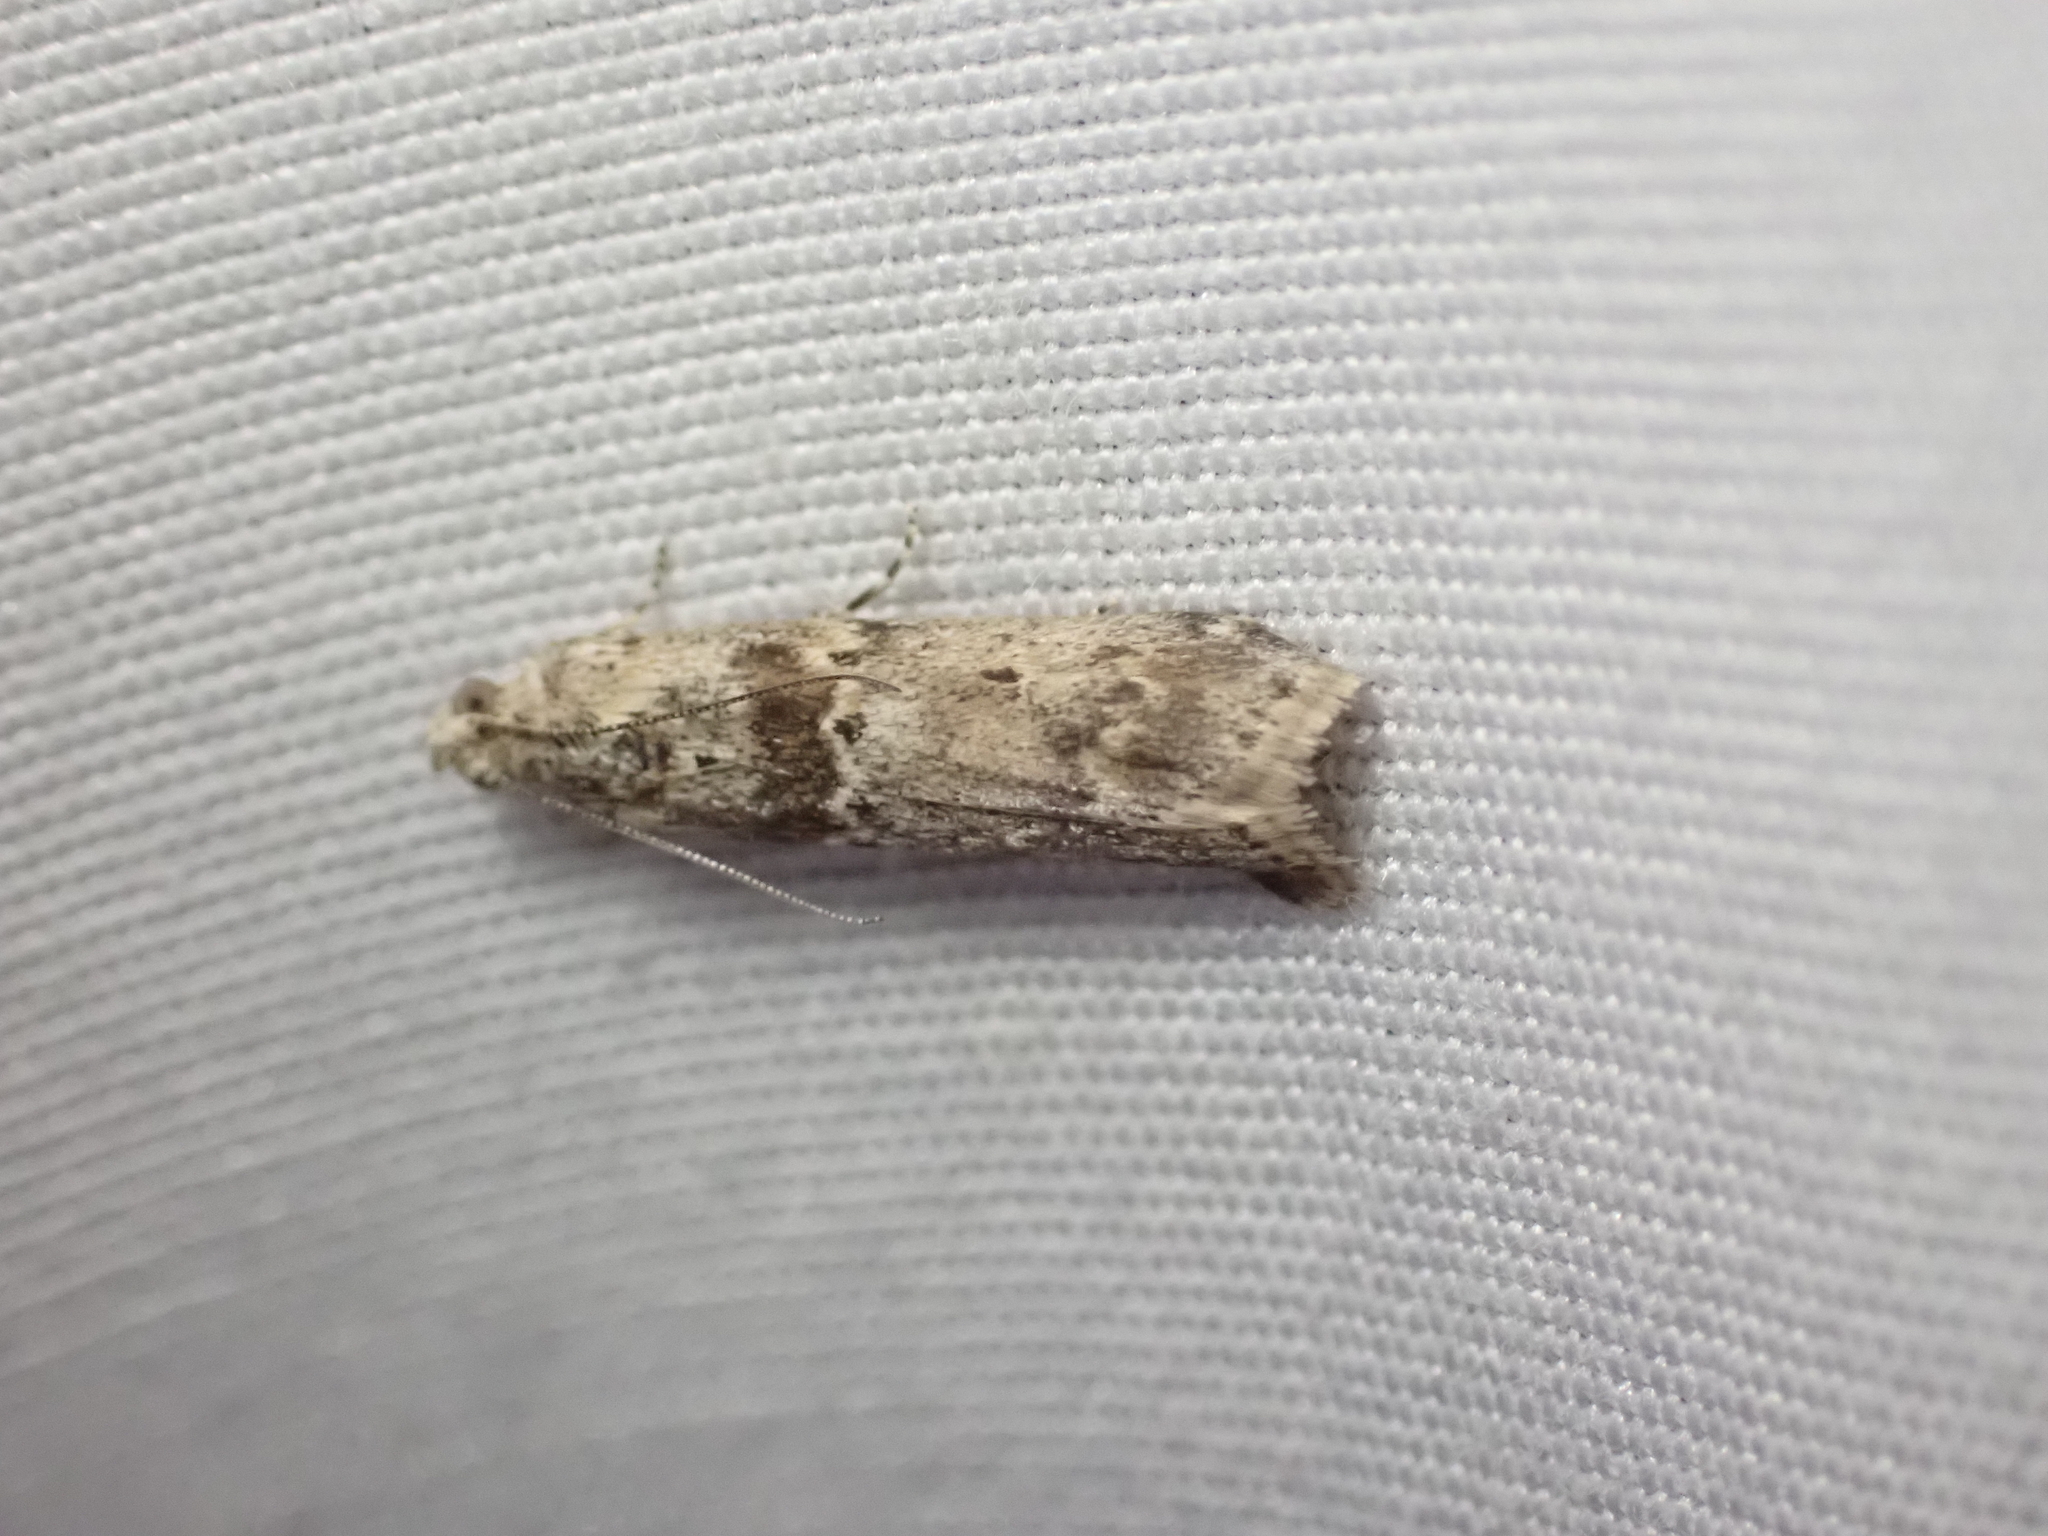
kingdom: Animalia
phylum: Arthropoda
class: Insecta
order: Lepidoptera
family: Pyralidae
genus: Ancylosis
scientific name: Ancylosis undulatella
